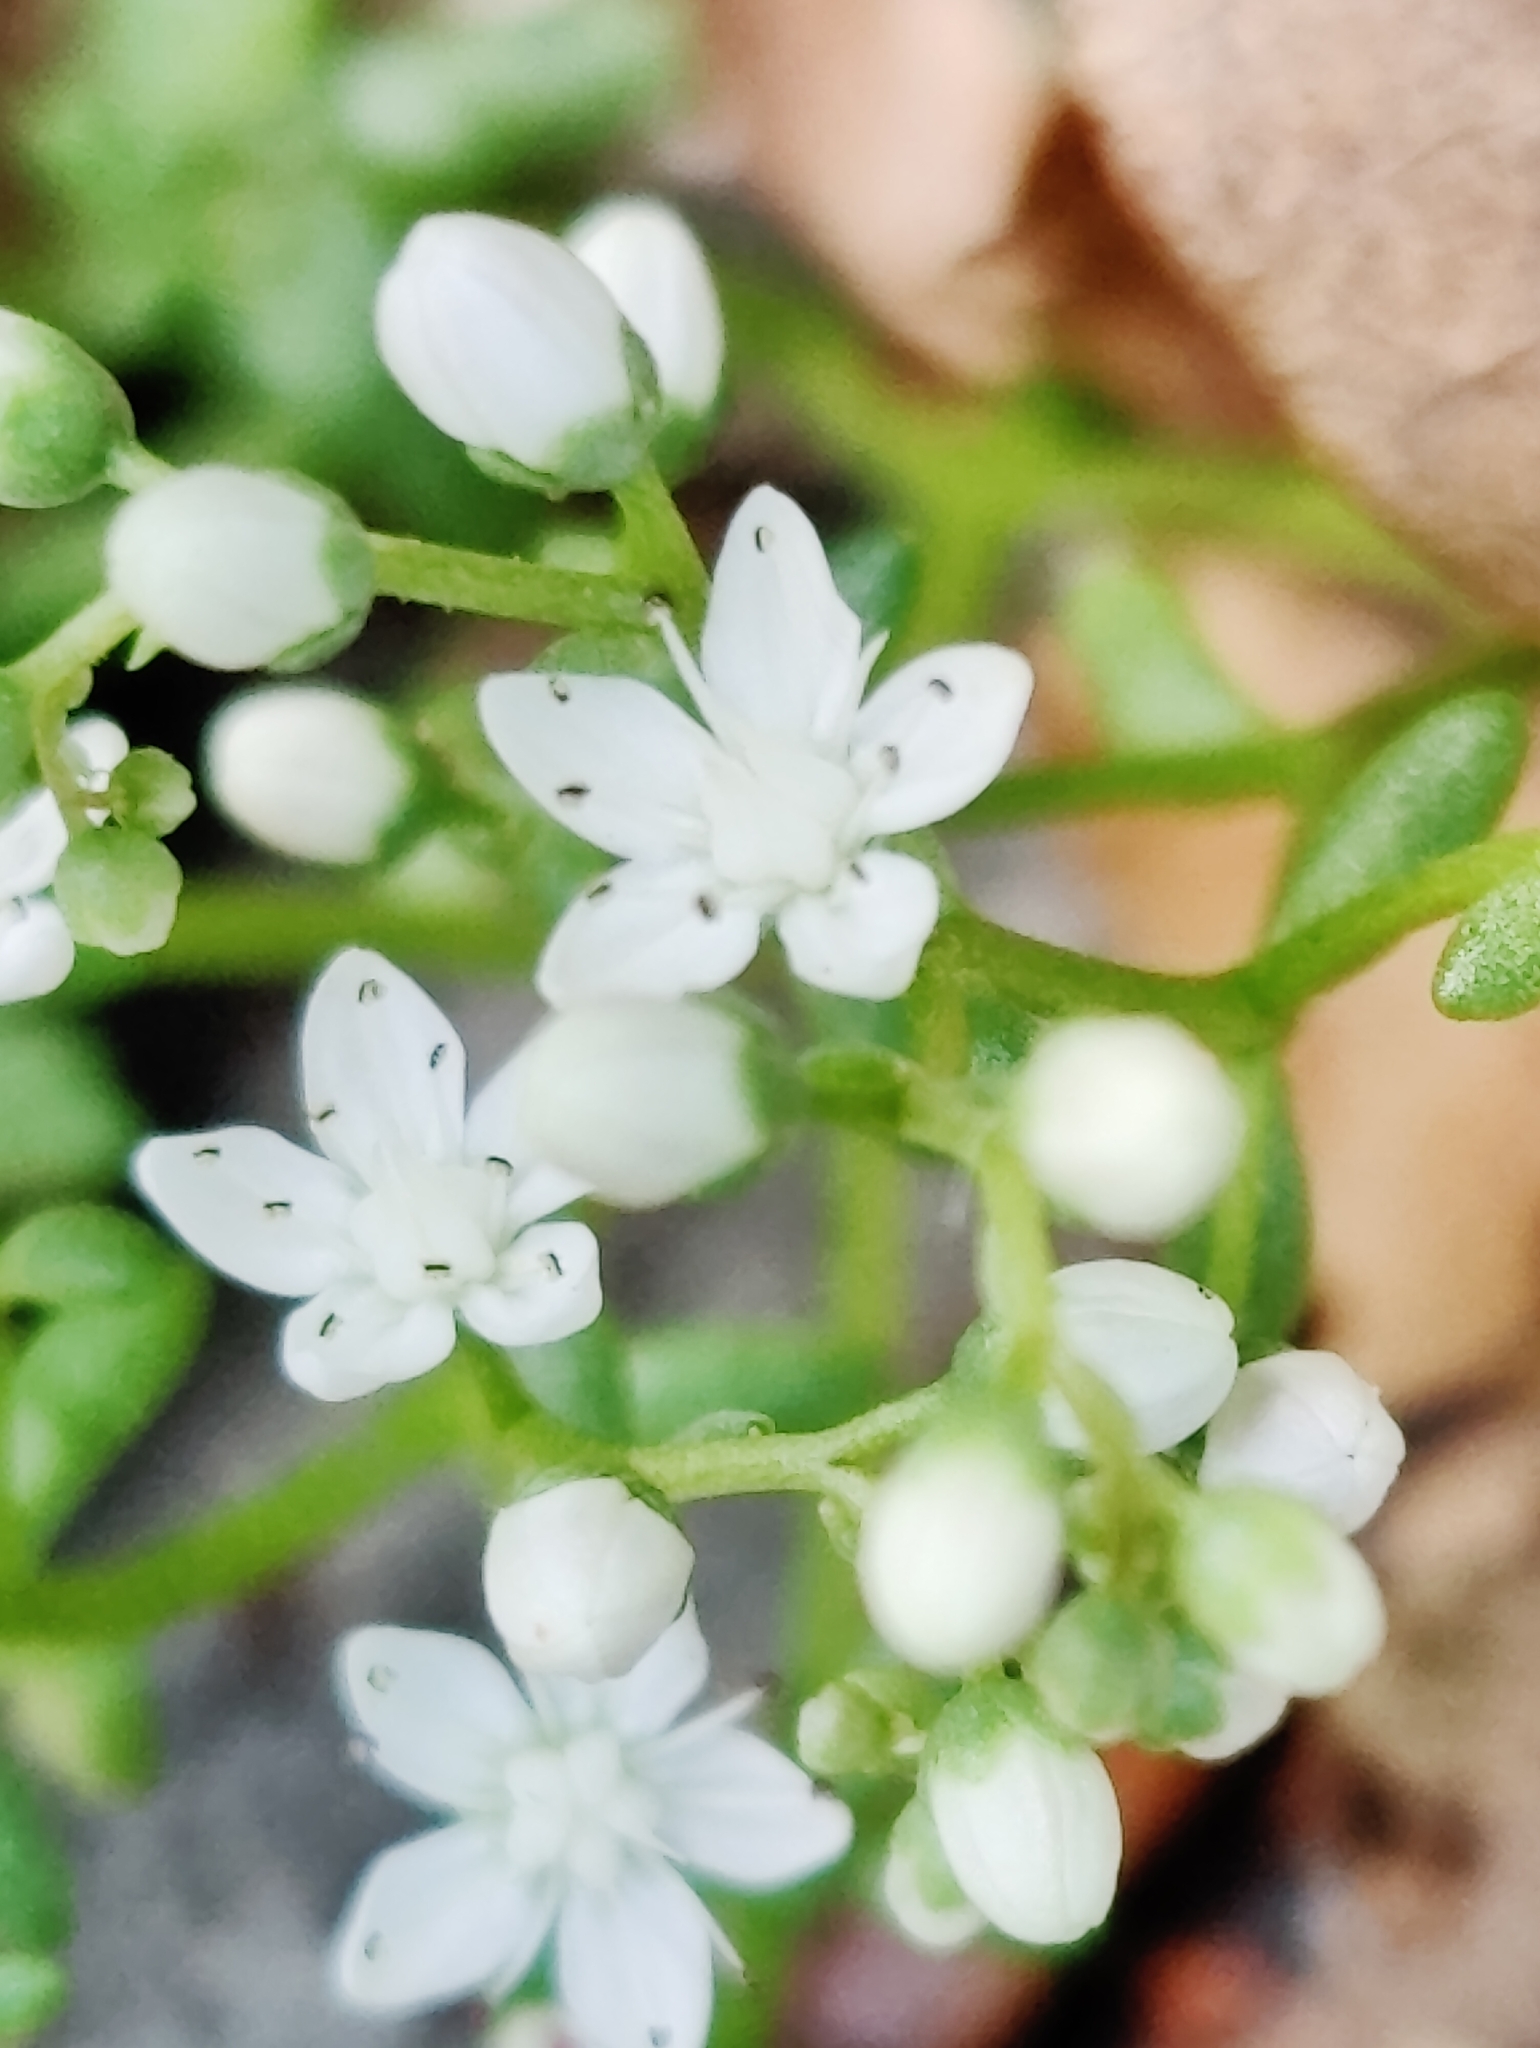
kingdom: Plantae
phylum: Tracheophyta
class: Magnoliopsida
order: Saxifragales
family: Crassulaceae
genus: Sedum
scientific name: Sedum album
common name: White stonecrop
